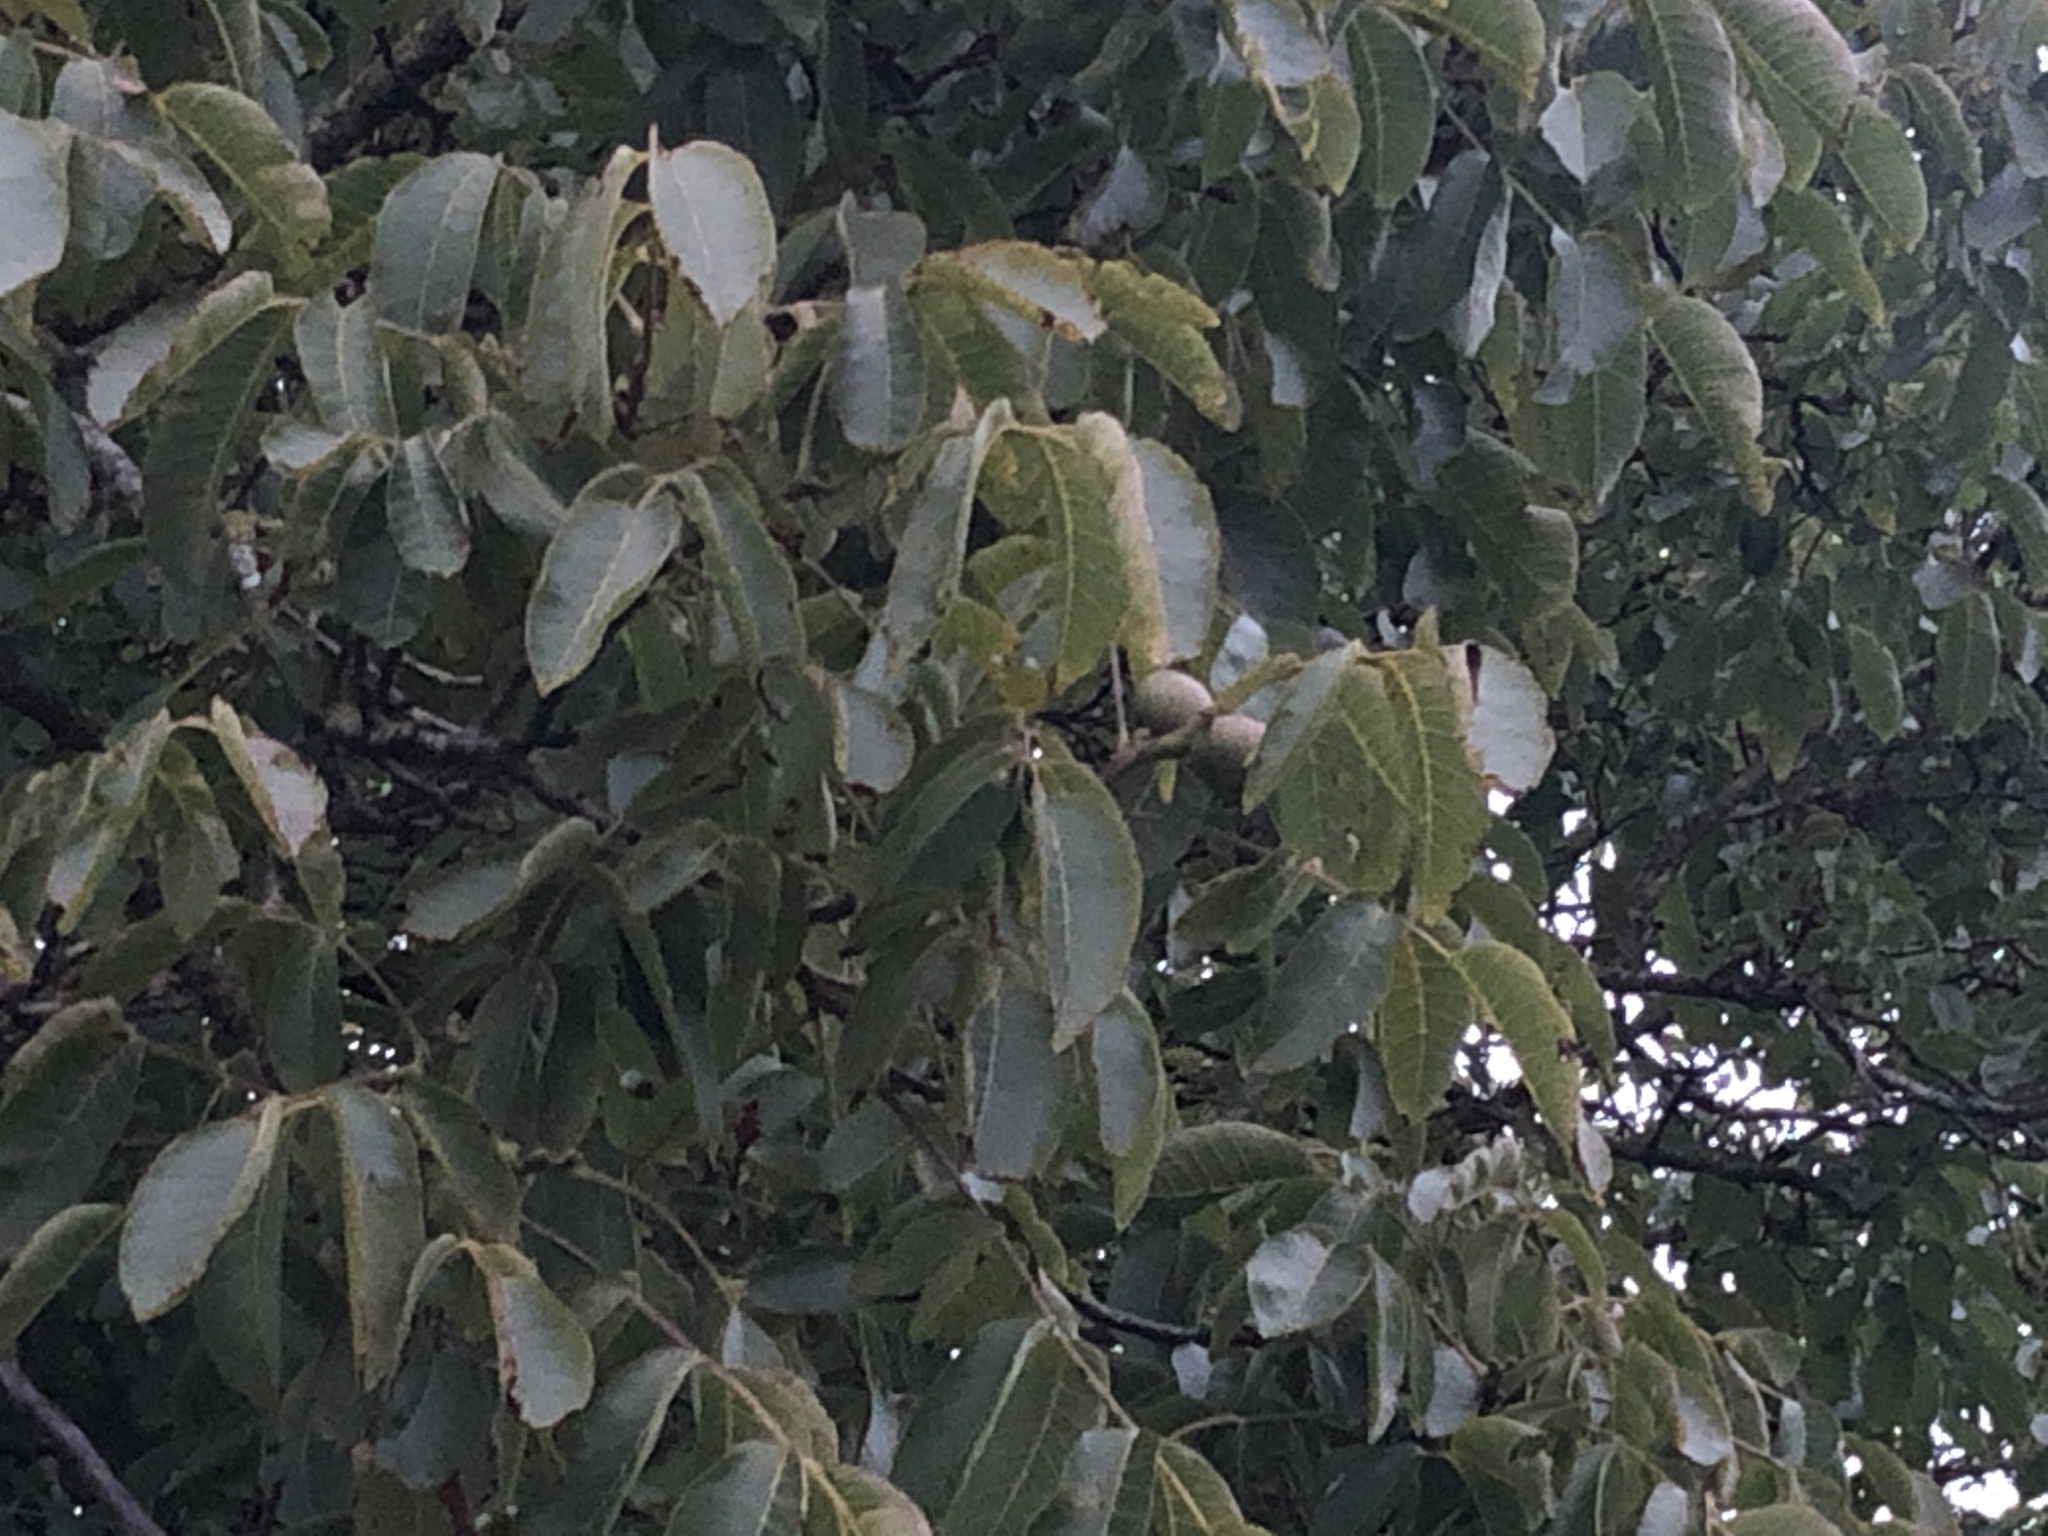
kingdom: Plantae
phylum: Tracheophyta
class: Magnoliopsida
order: Fagales
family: Juglandaceae
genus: Juglans
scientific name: Juglans regia
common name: Walnut
